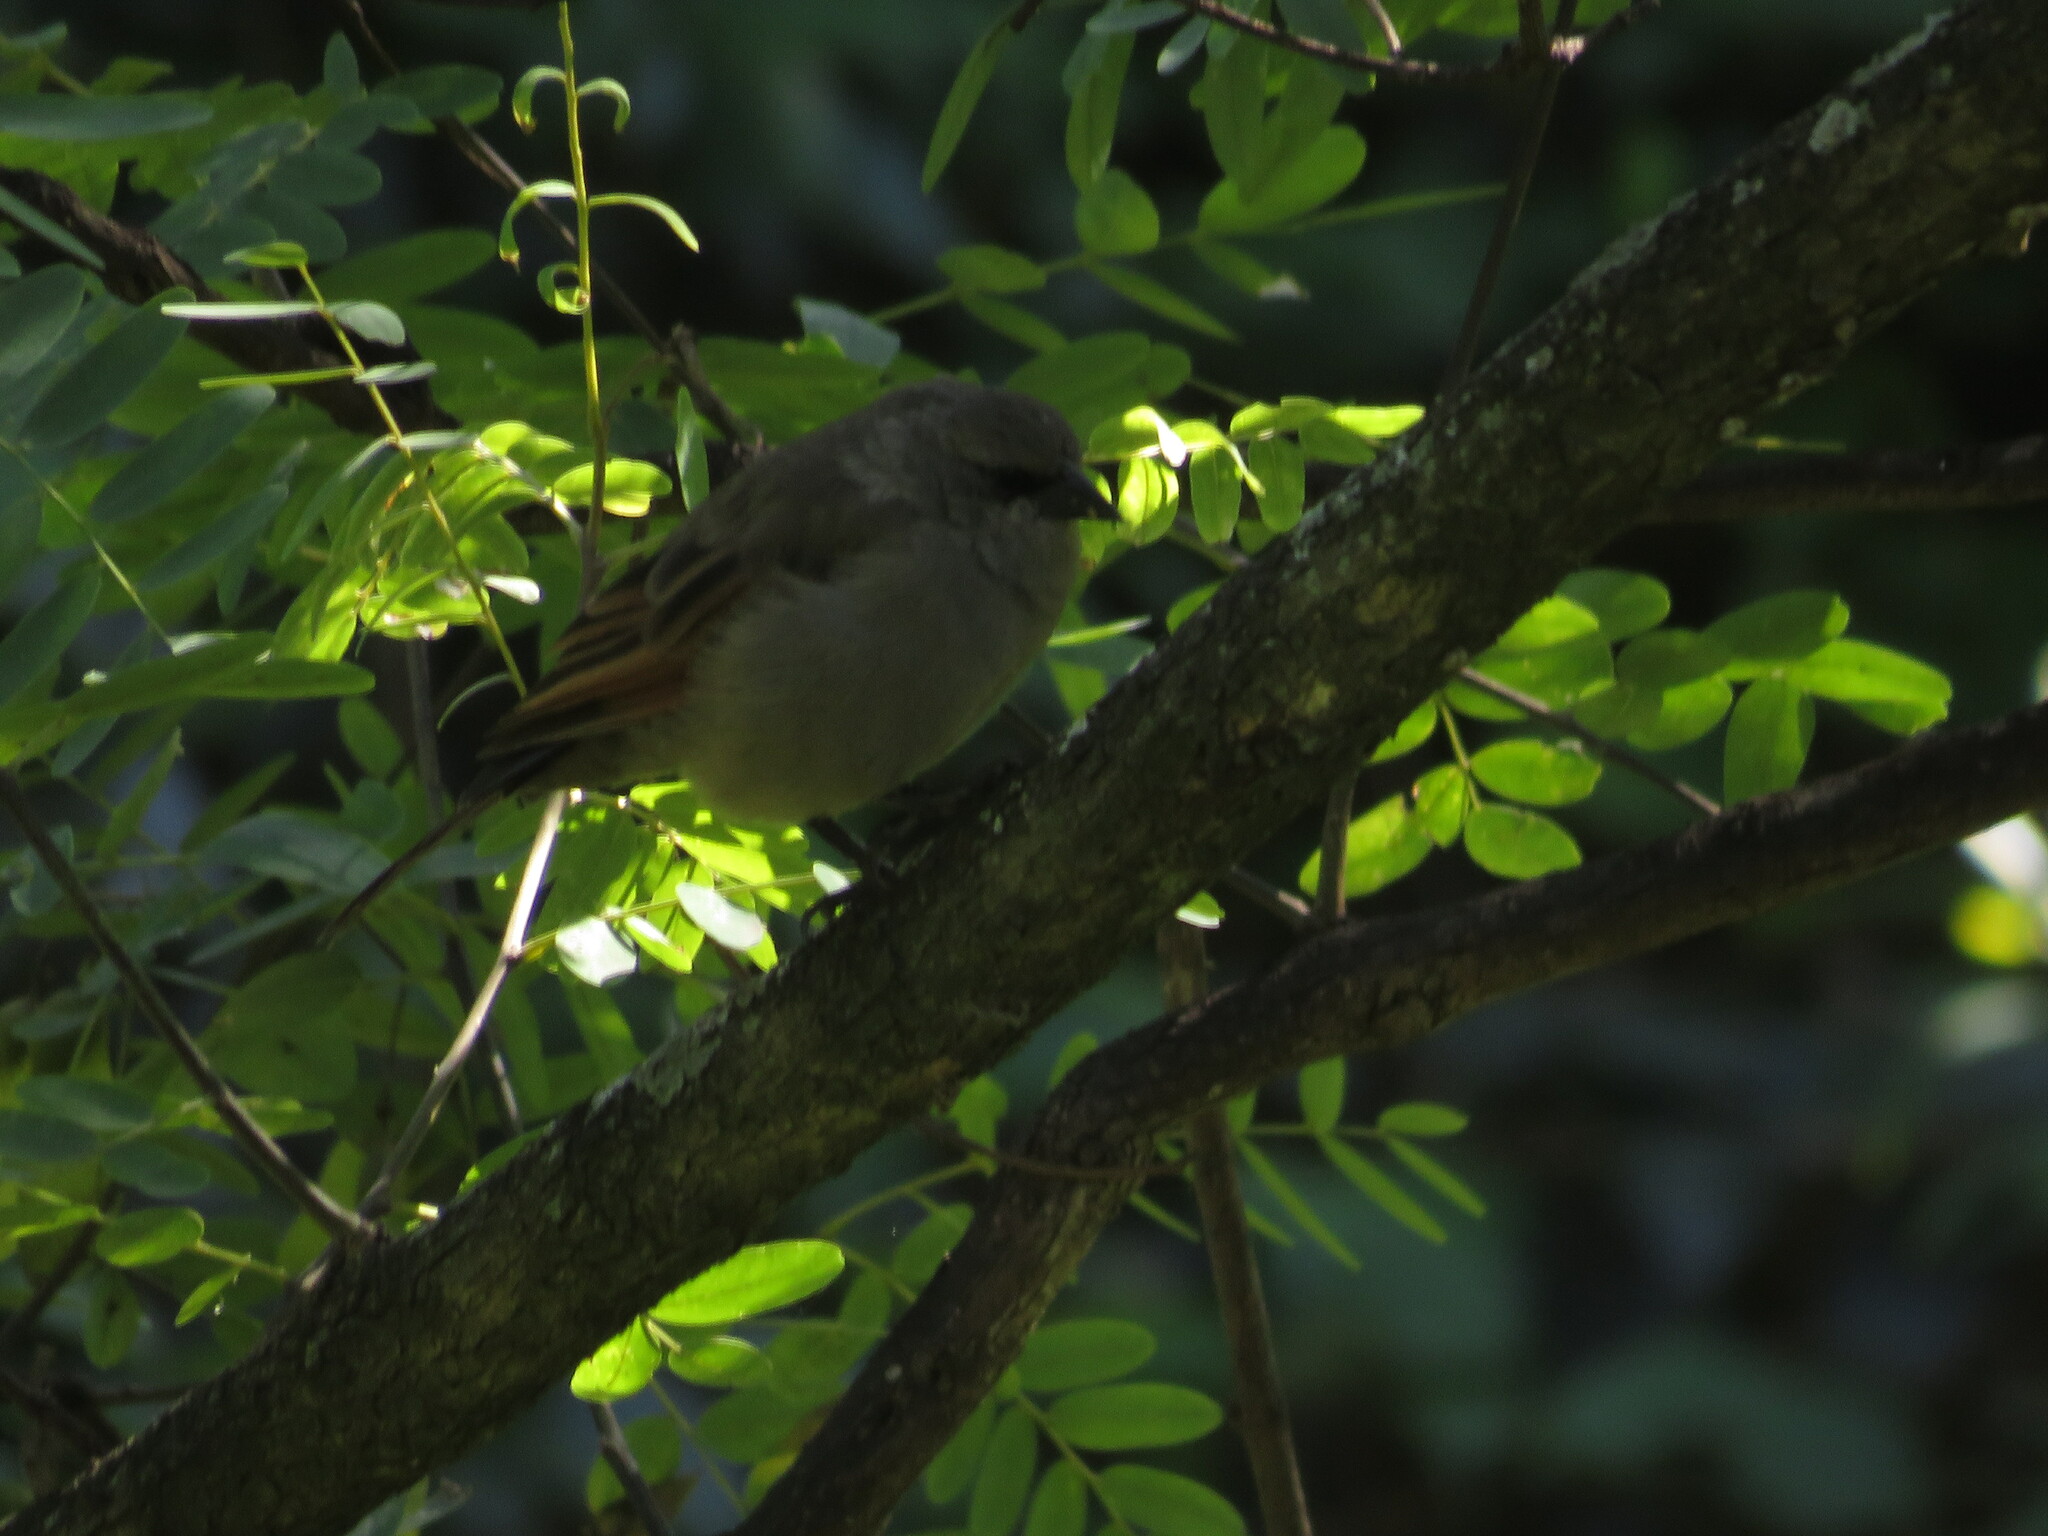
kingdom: Animalia
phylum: Chordata
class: Aves
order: Passeriformes
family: Icteridae
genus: Agelaioides
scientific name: Agelaioides badius
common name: Baywing
